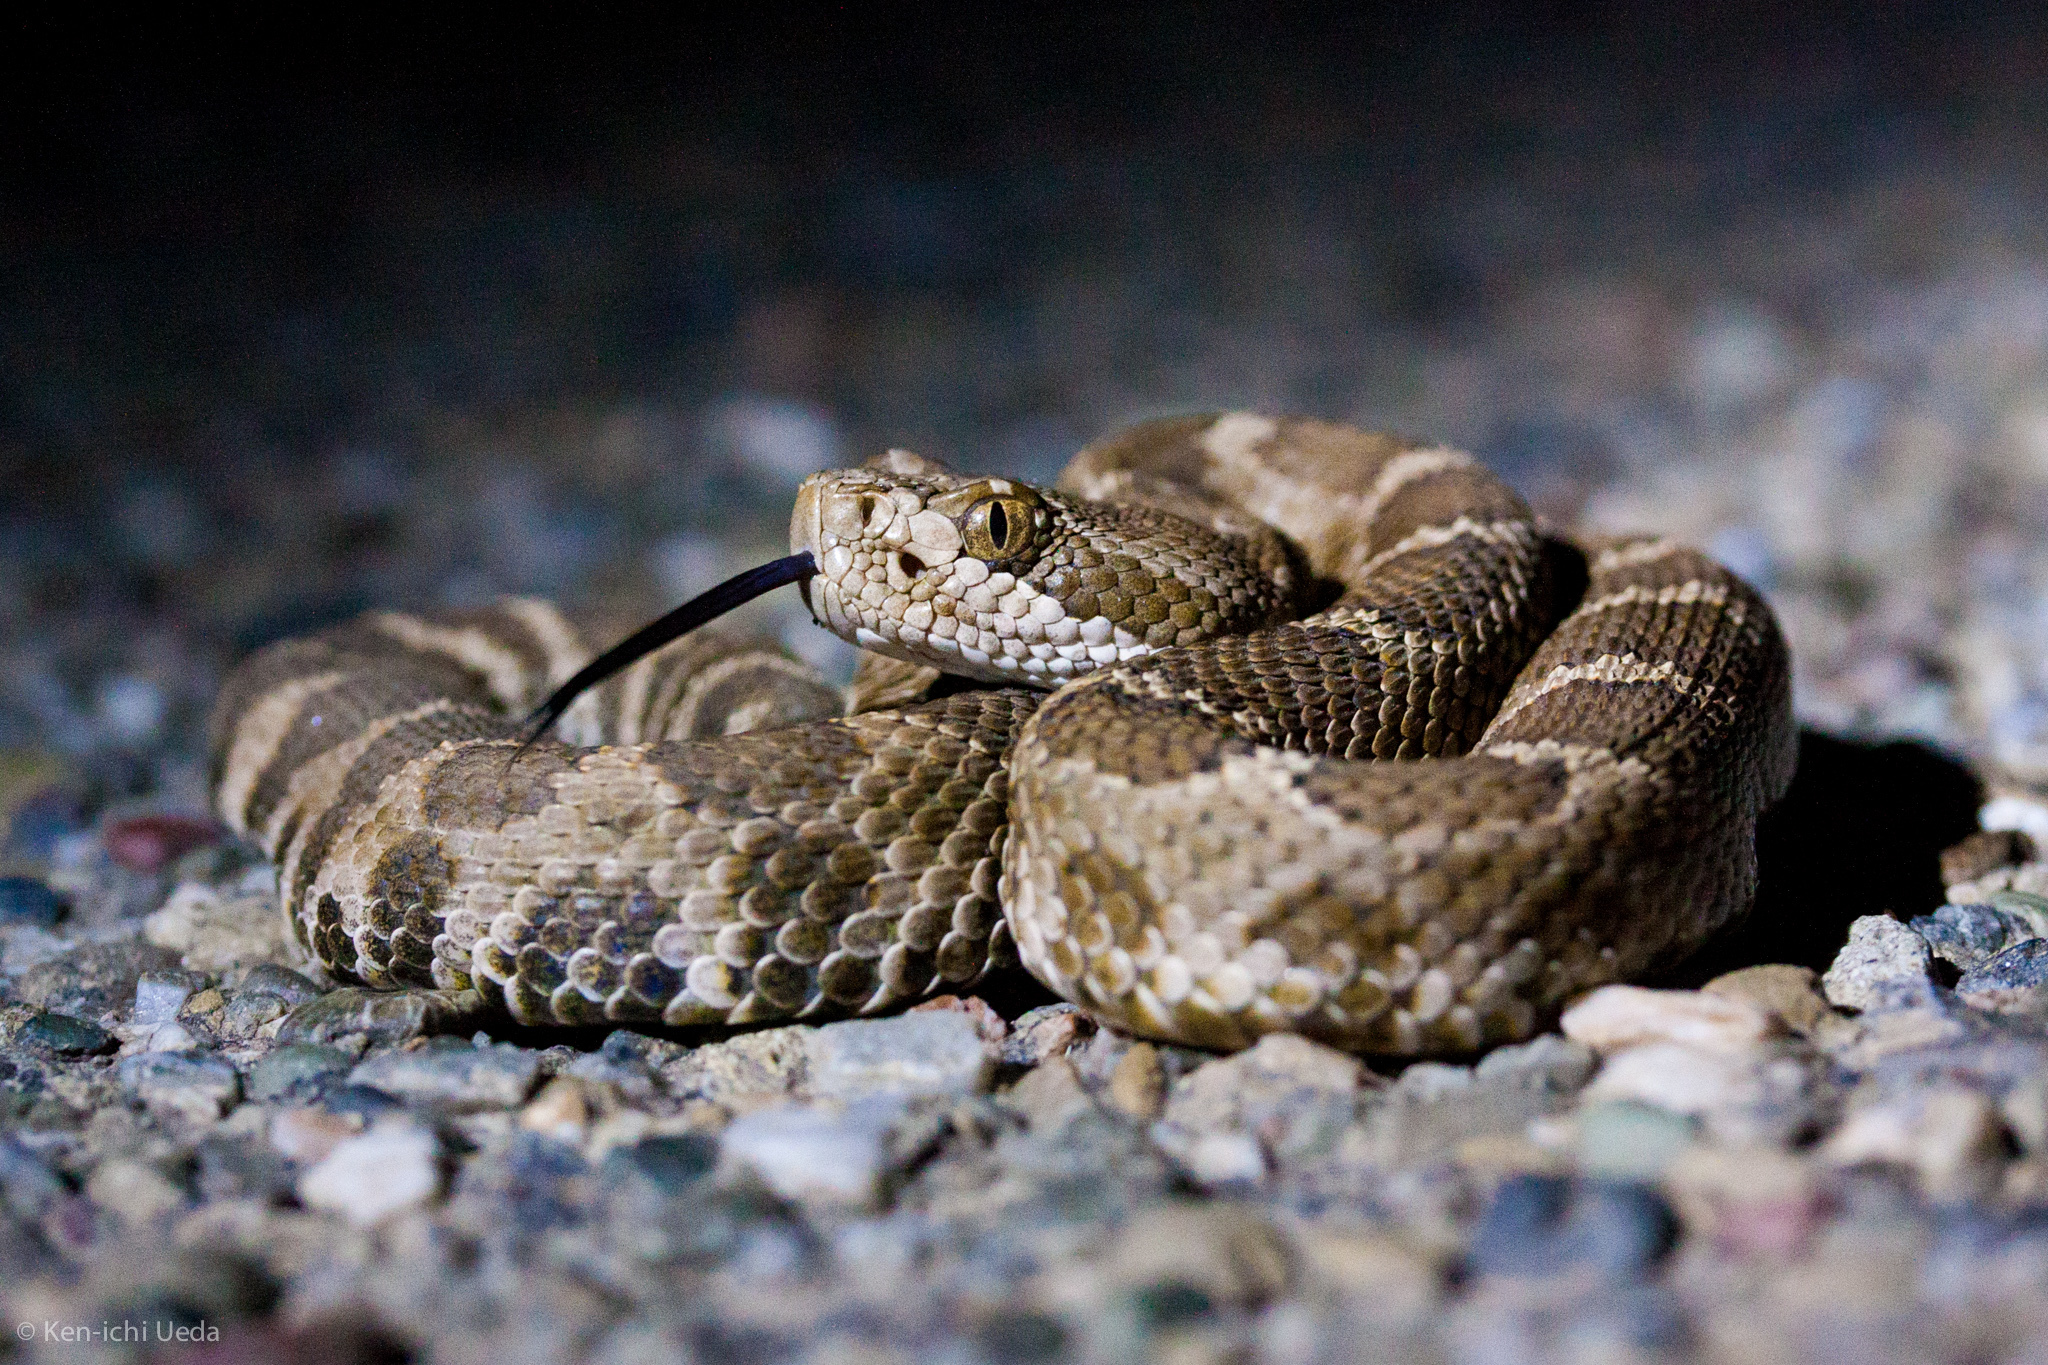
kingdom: Animalia
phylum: Chordata
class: Squamata
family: Viperidae
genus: Crotalus
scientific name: Crotalus oreganus
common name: Abyssus
